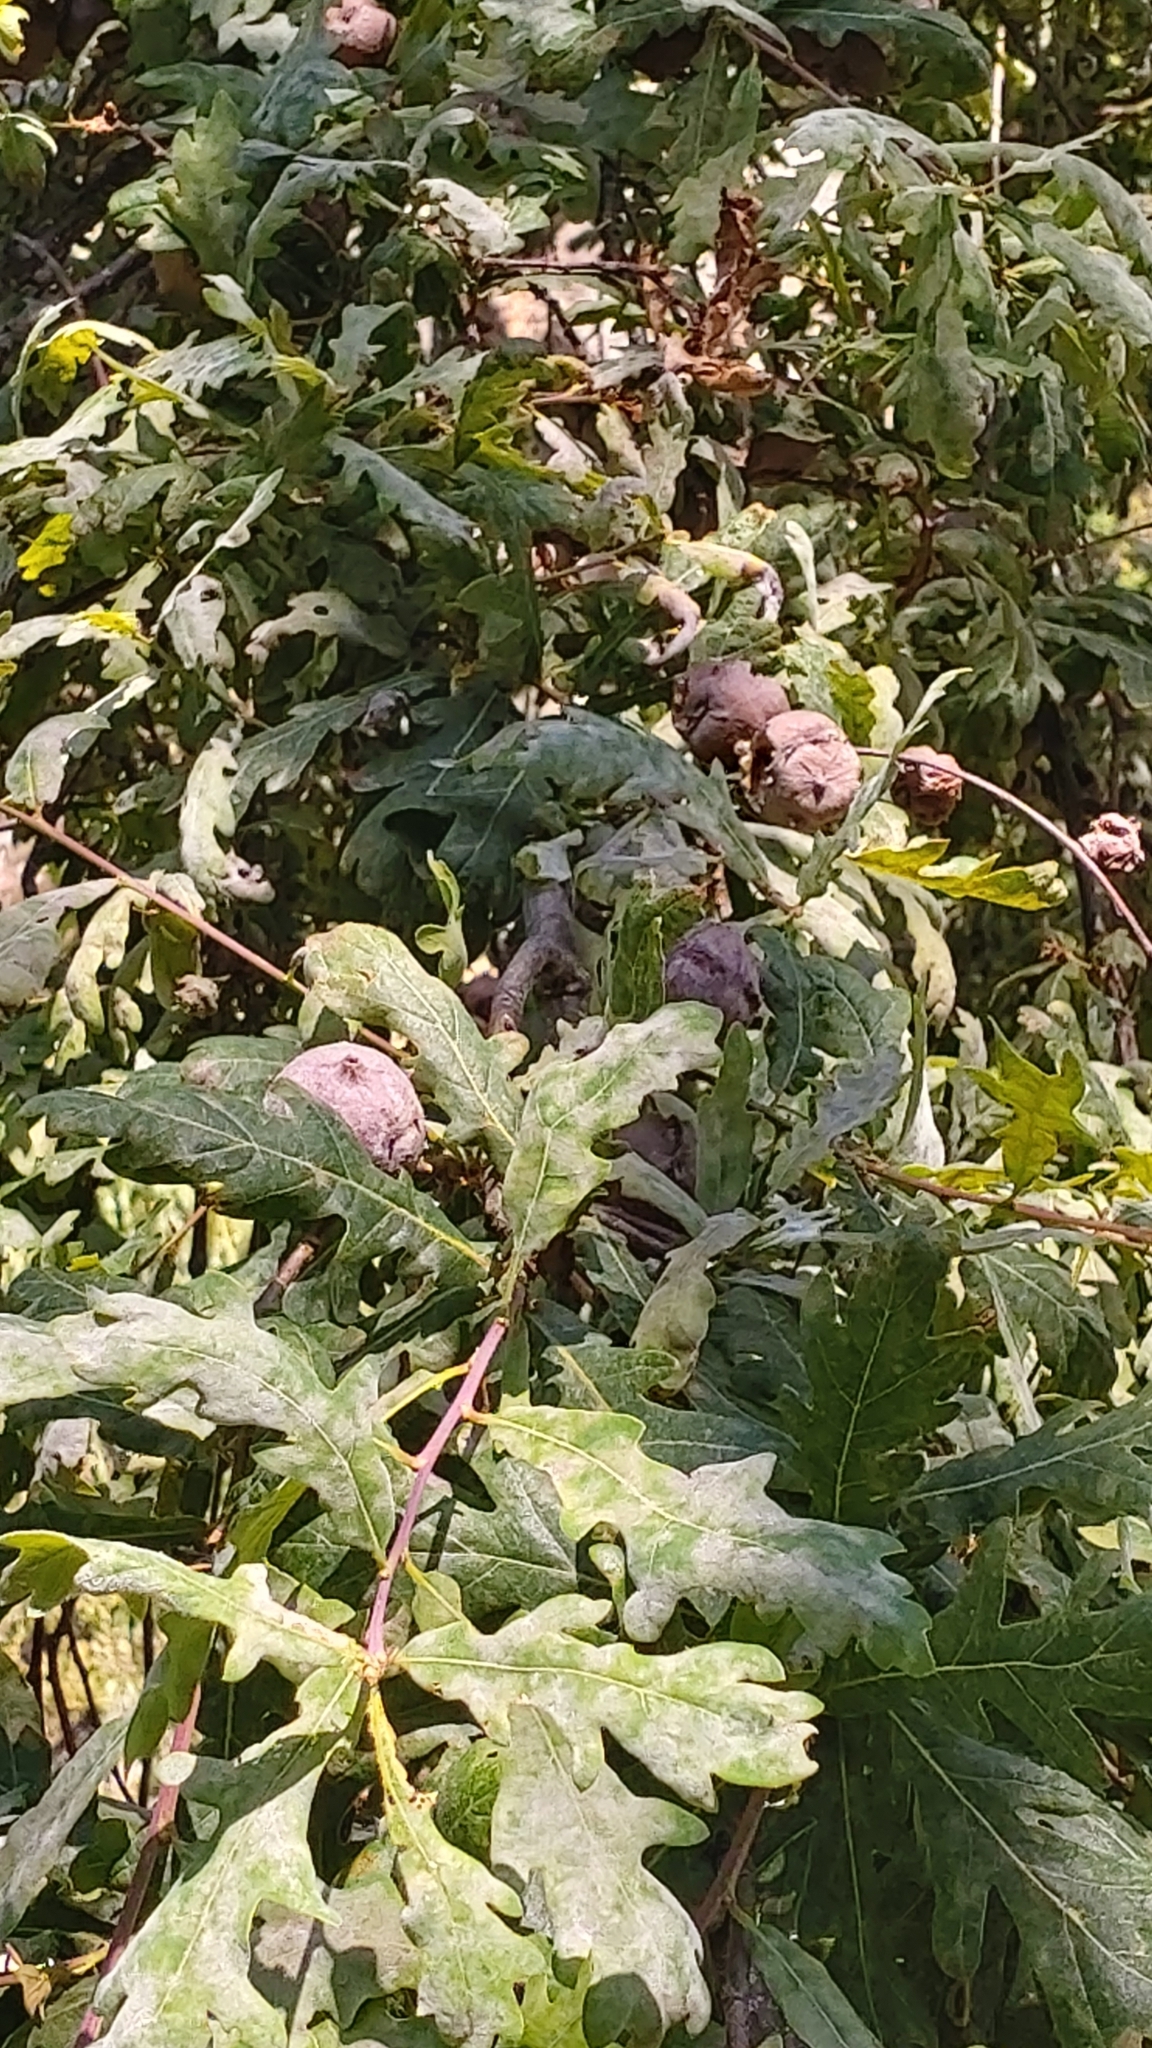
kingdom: Animalia
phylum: Arthropoda
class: Insecta
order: Hymenoptera
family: Cynipidae
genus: Andricus
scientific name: Andricus quercustozae
